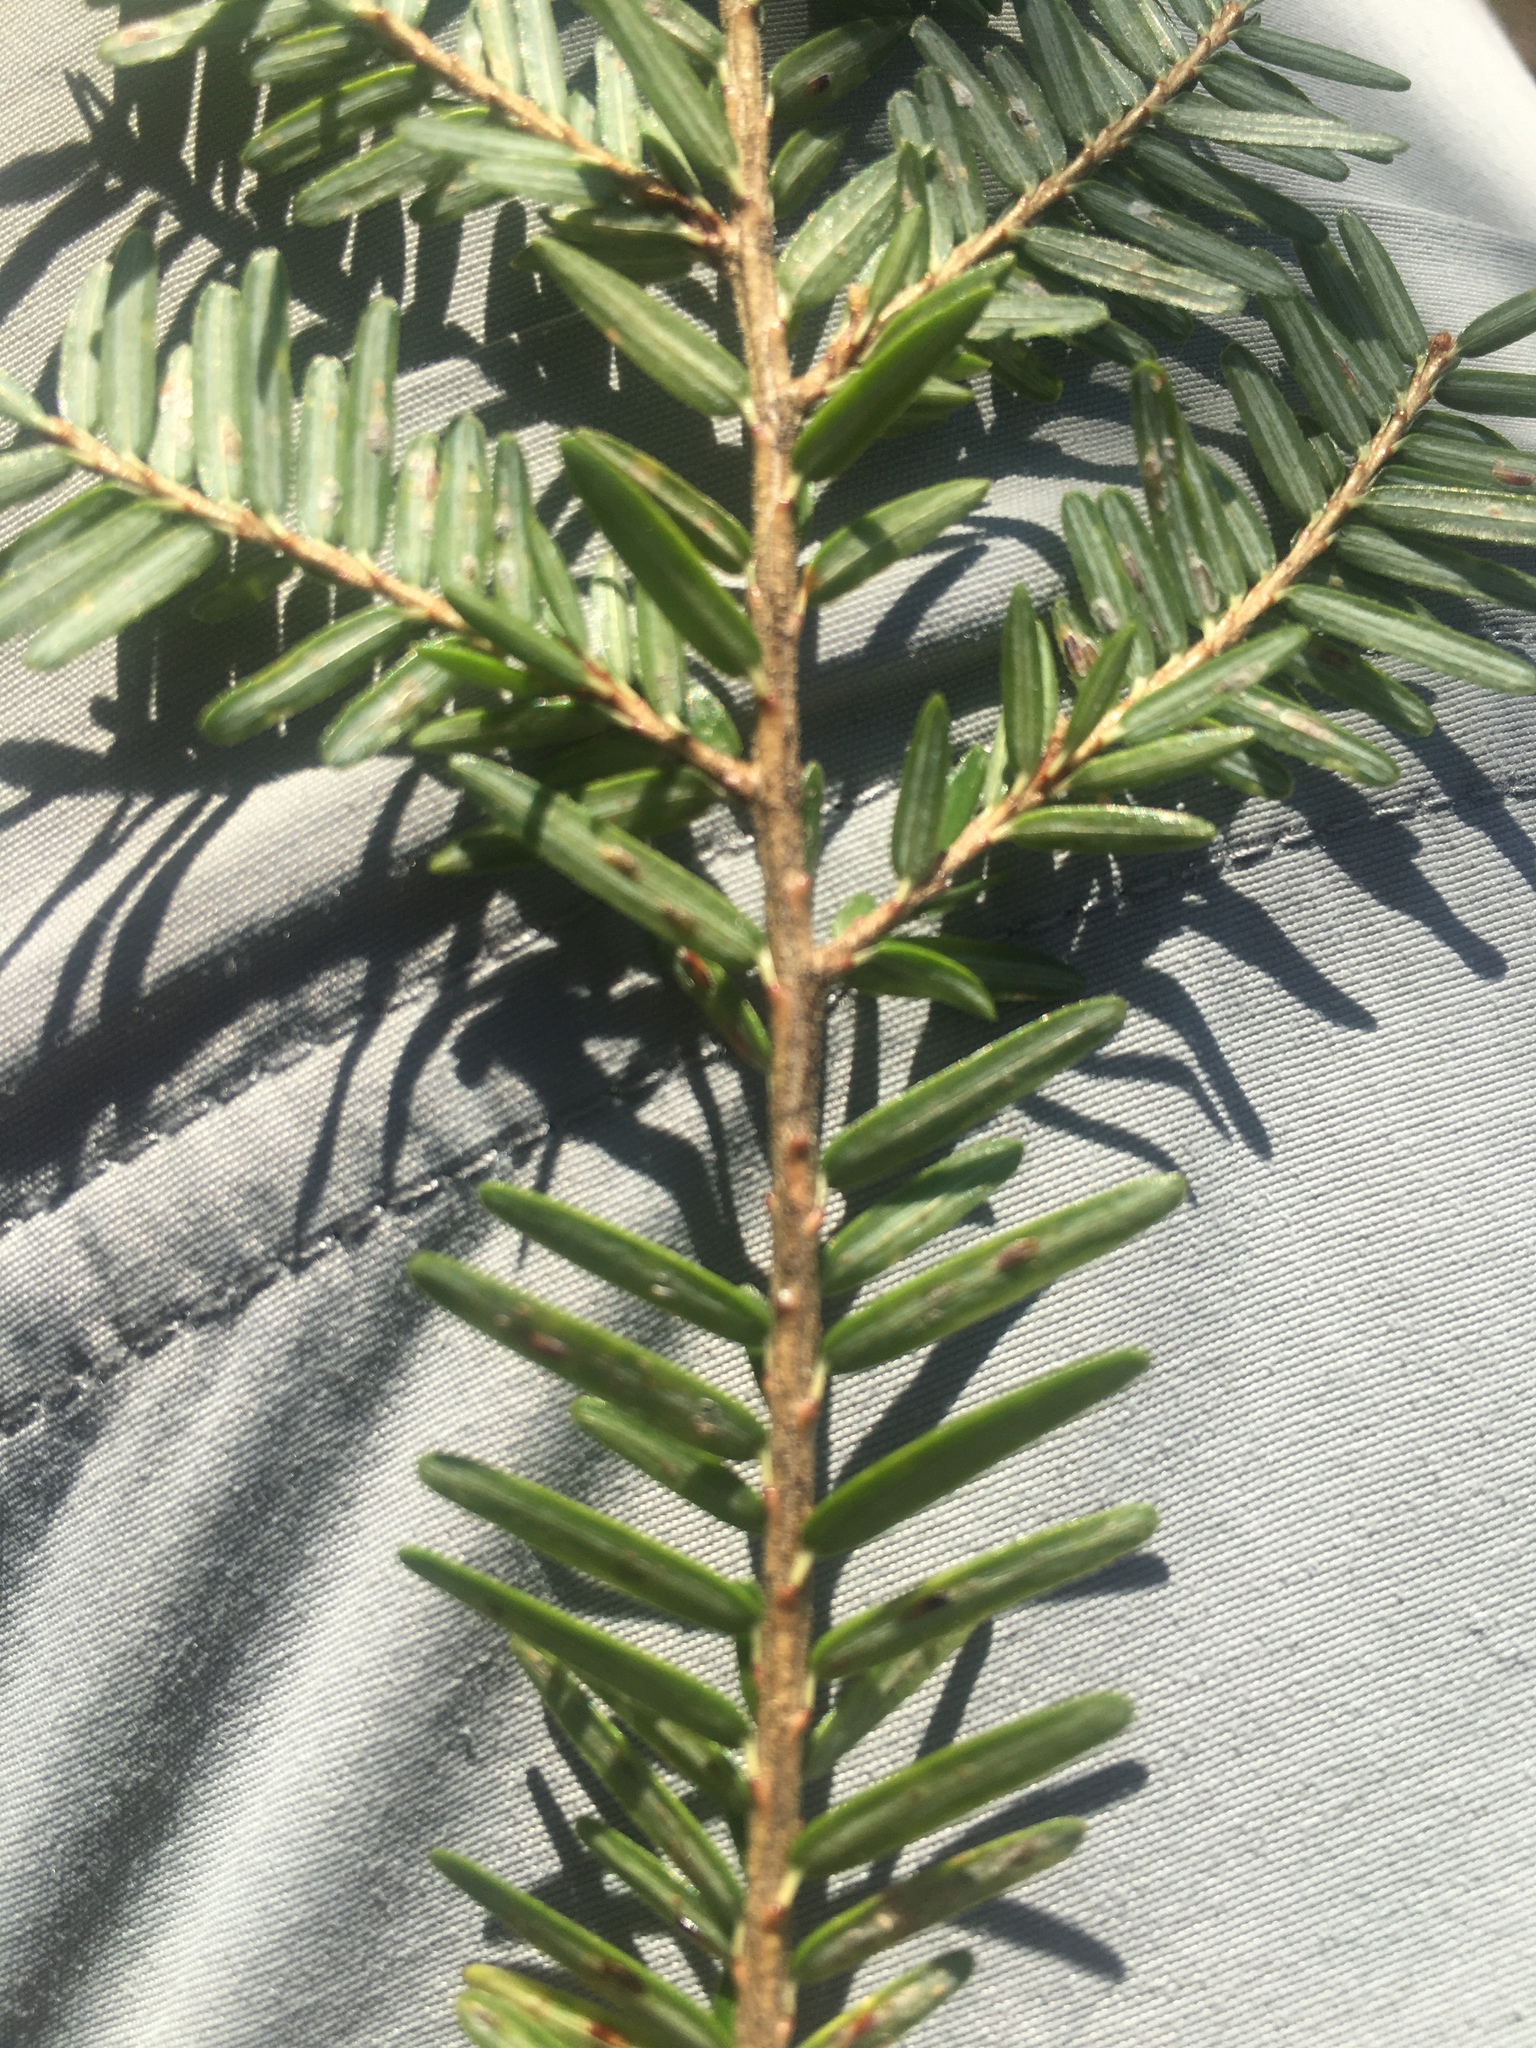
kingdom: Animalia
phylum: Arthropoda
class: Insecta
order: Hemiptera
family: Diaspididae
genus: Fiorinia
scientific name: Fiorinia externa
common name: Elongate hemlock scale
